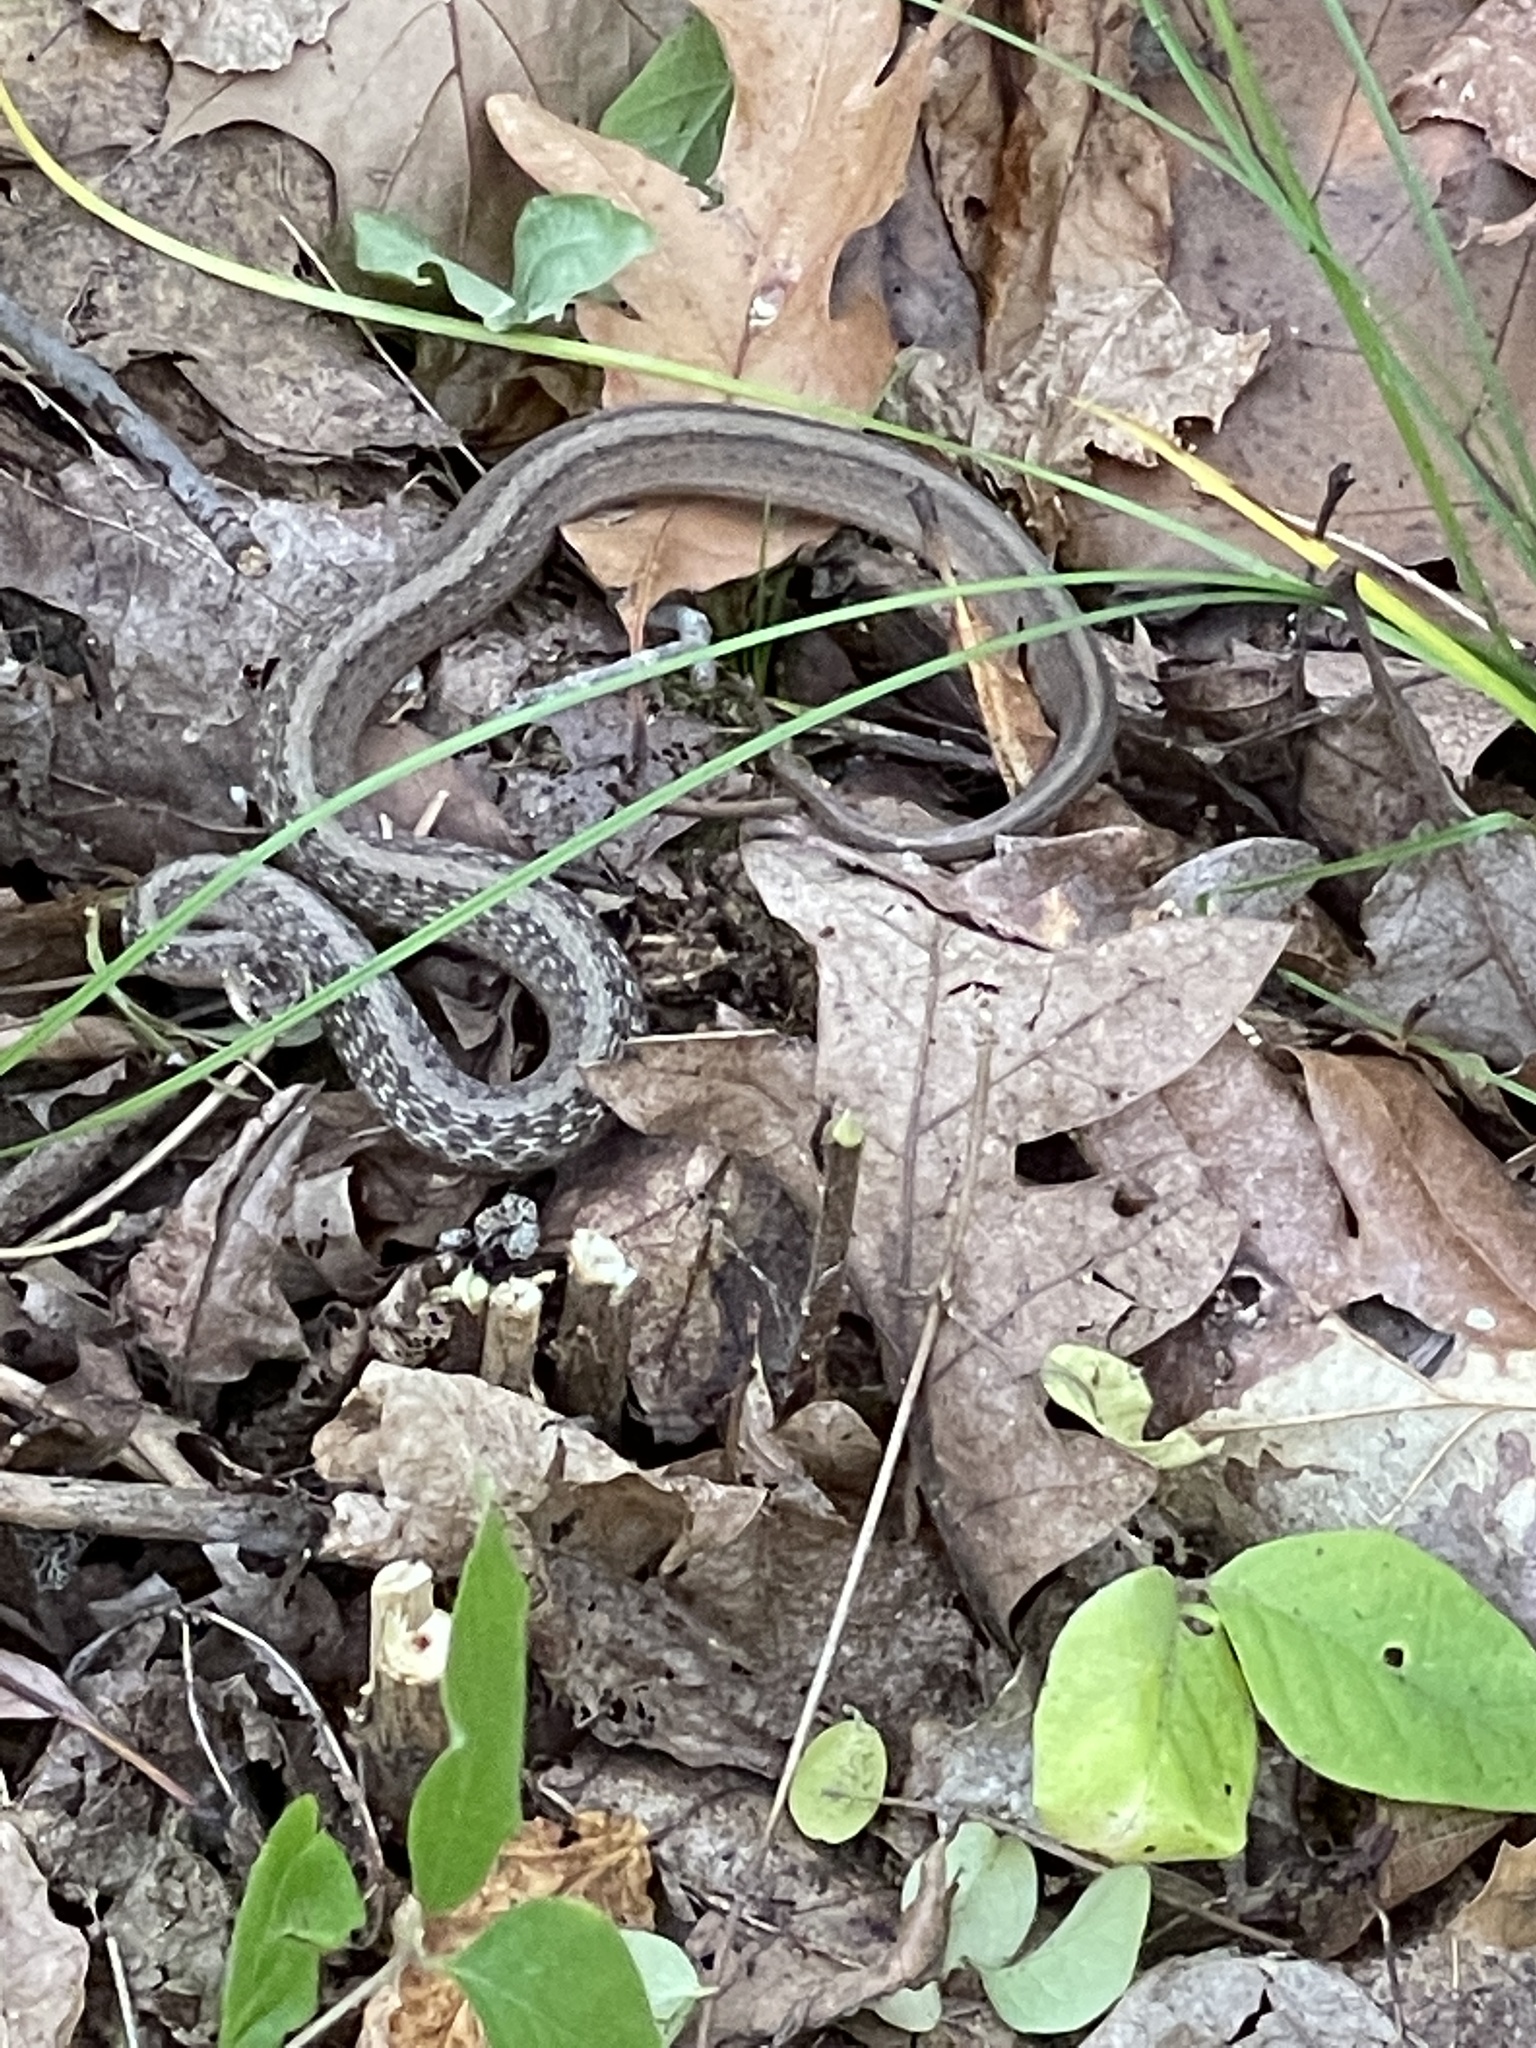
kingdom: Animalia
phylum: Chordata
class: Squamata
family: Colubridae
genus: Storeria
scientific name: Storeria dekayi
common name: (dekay’s) brown snake
